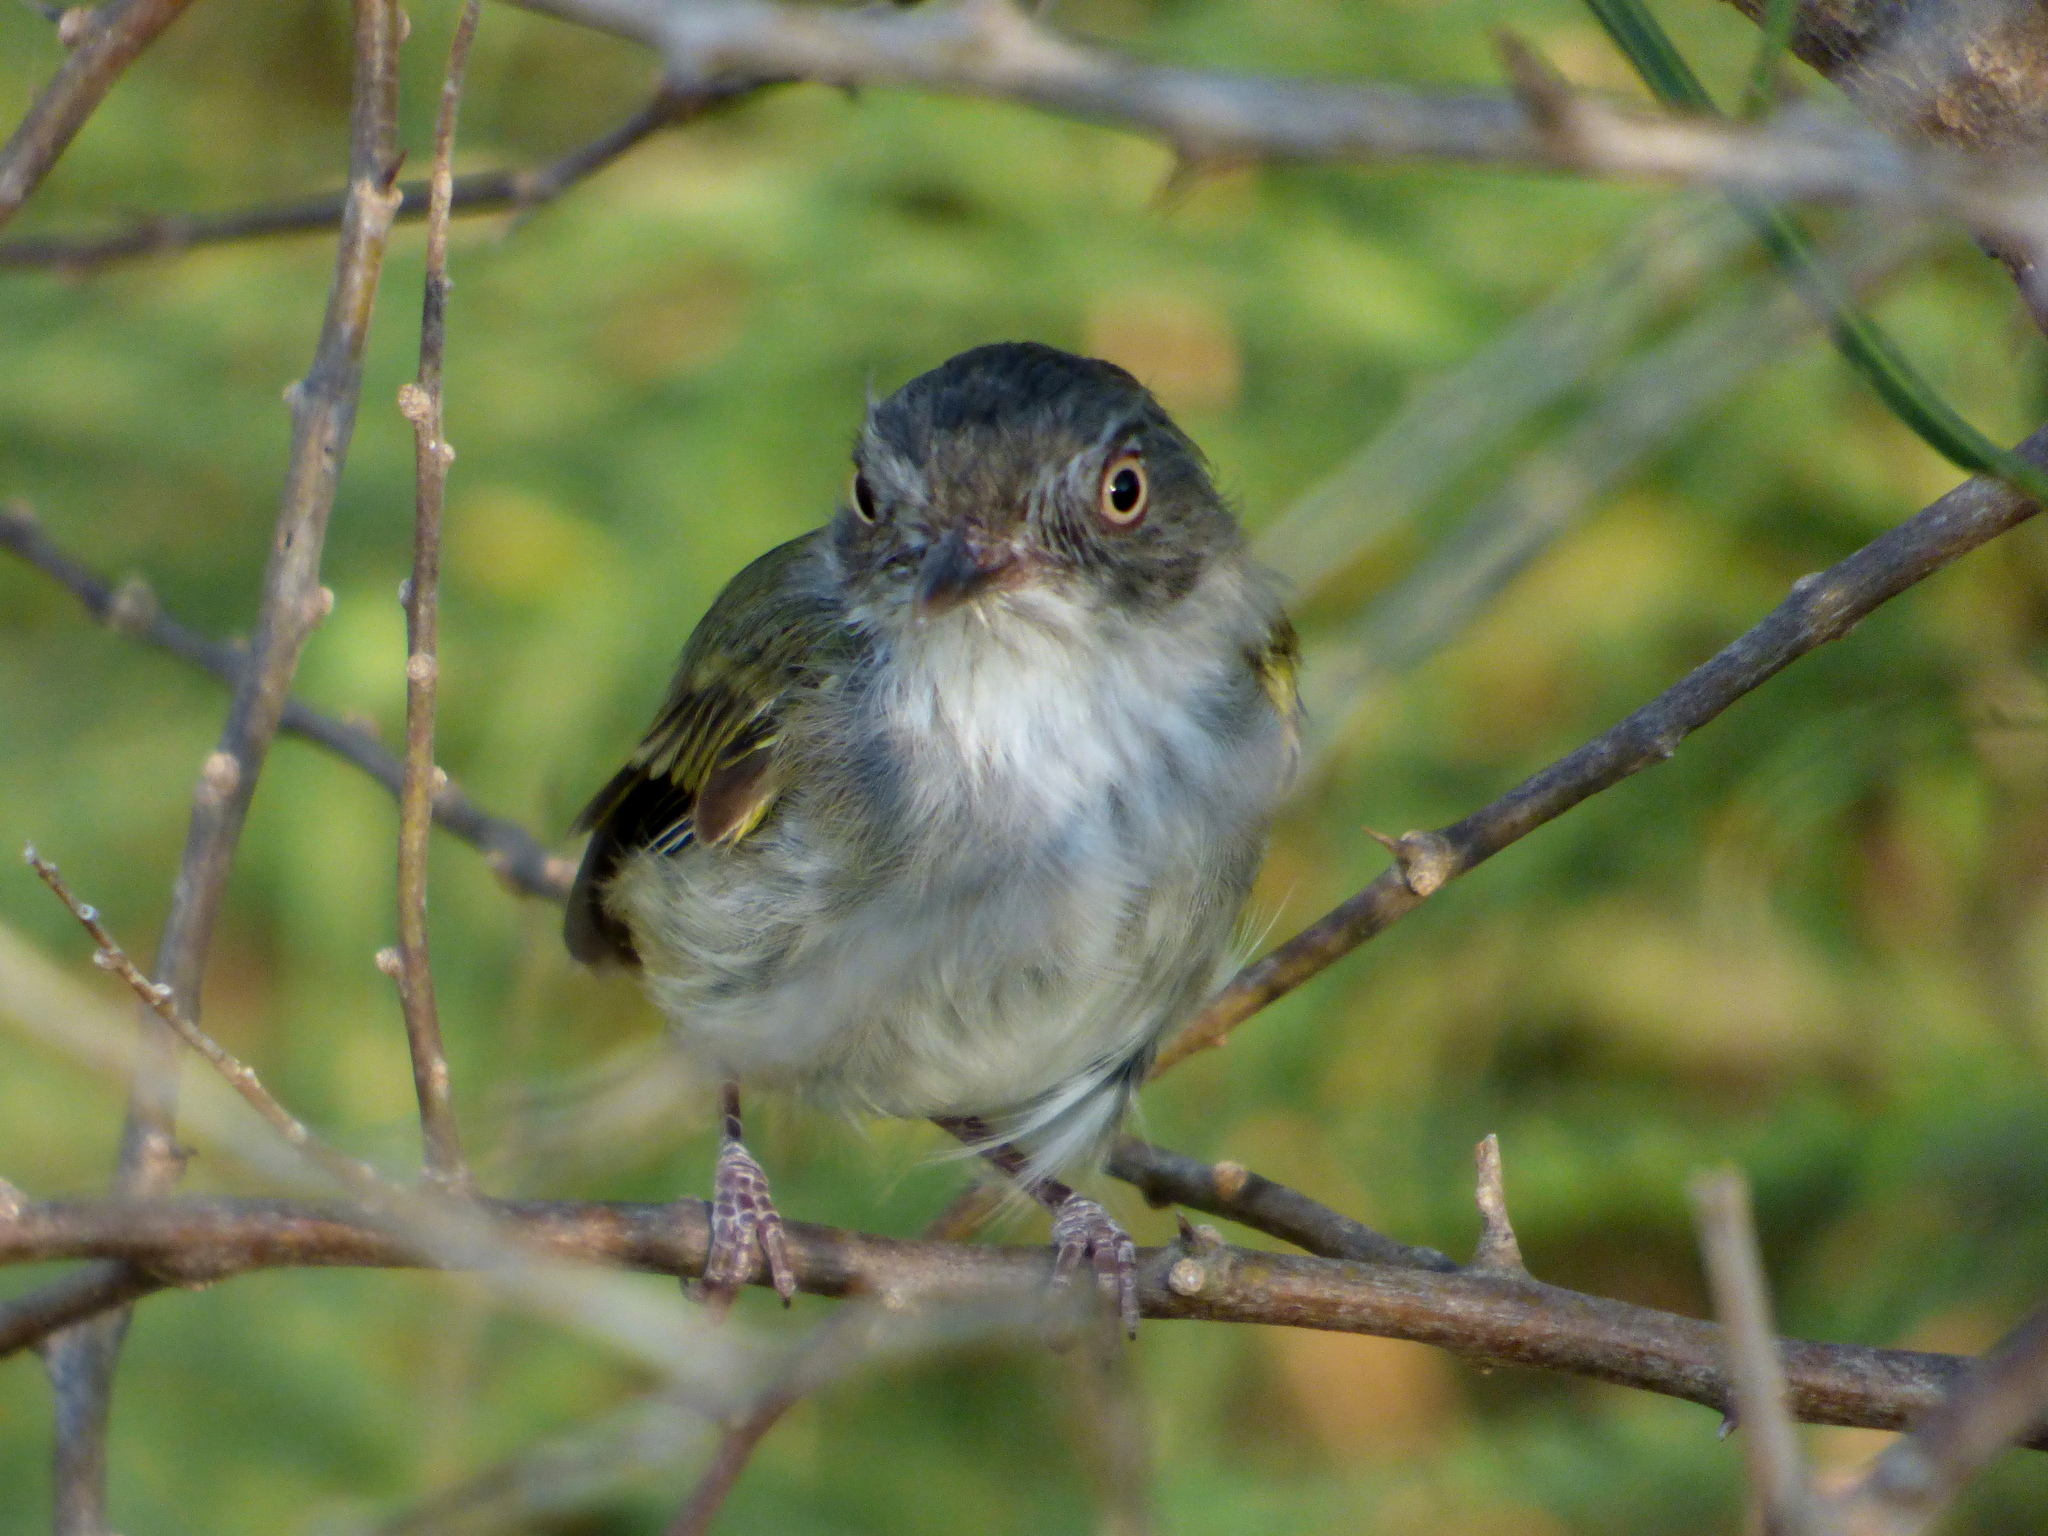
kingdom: Animalia
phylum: Chordata
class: Aves
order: Passeriformes
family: Tyrannidae
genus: Hemitriccus
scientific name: Hemitriccus margaritaceiventer
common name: Pearly-vented tody-tyrant
